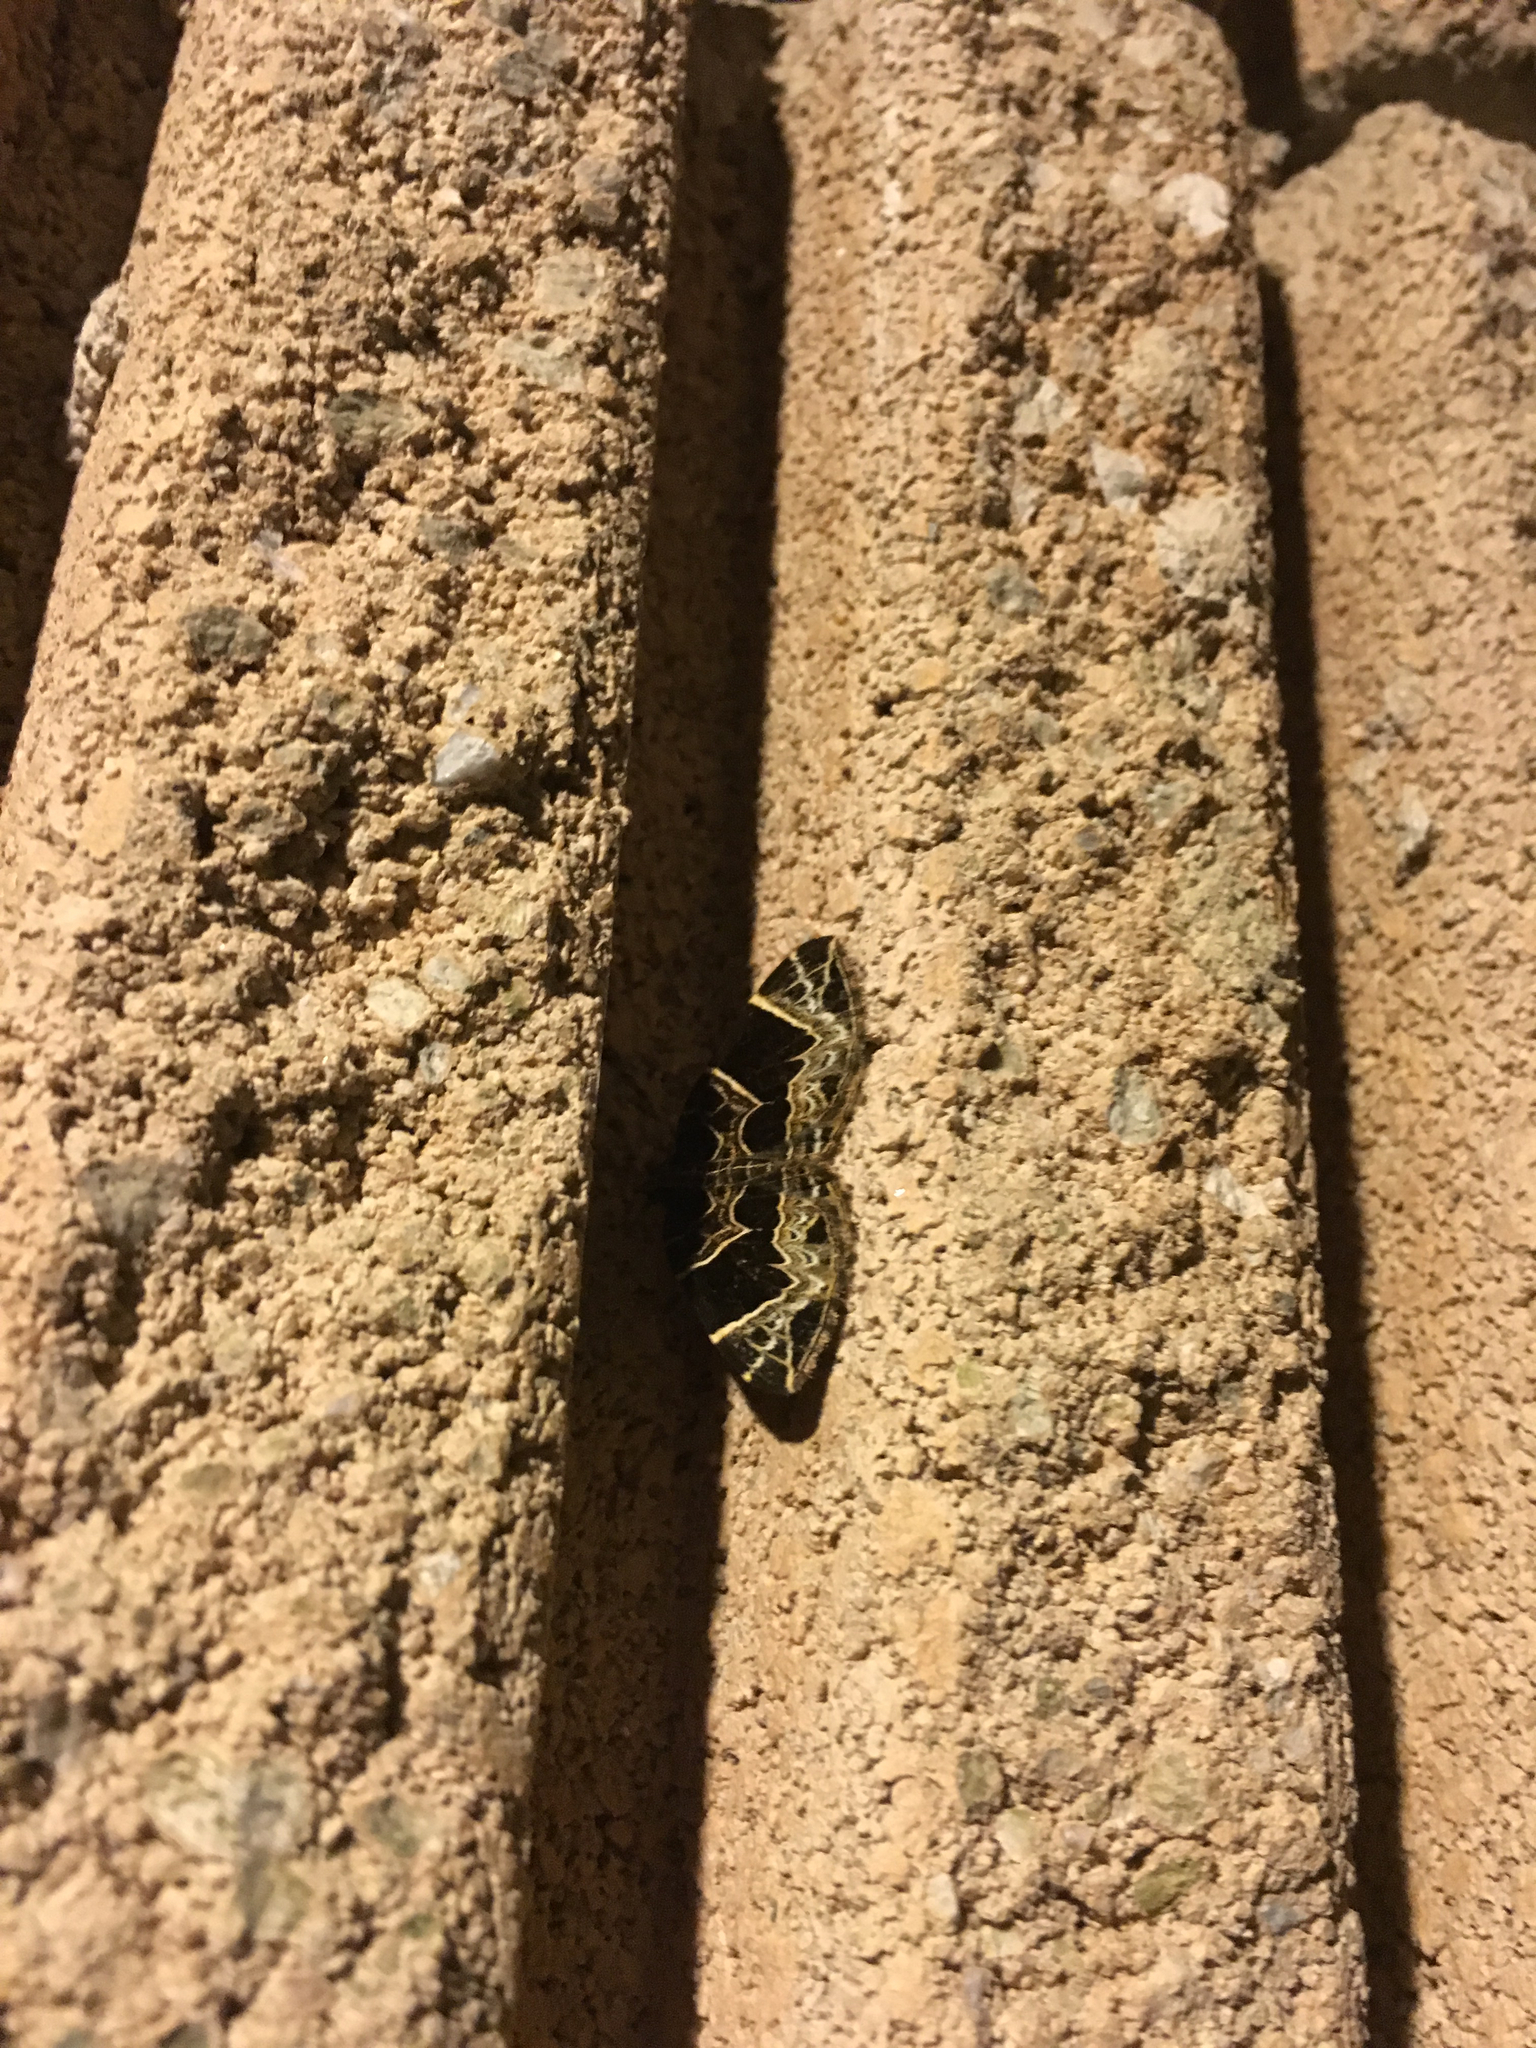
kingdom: Animalia
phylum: Arthropoda
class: Insecta
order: Lepidoptera
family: Geometridae
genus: Ecliptopera
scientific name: Ecliptopera atricolorata
